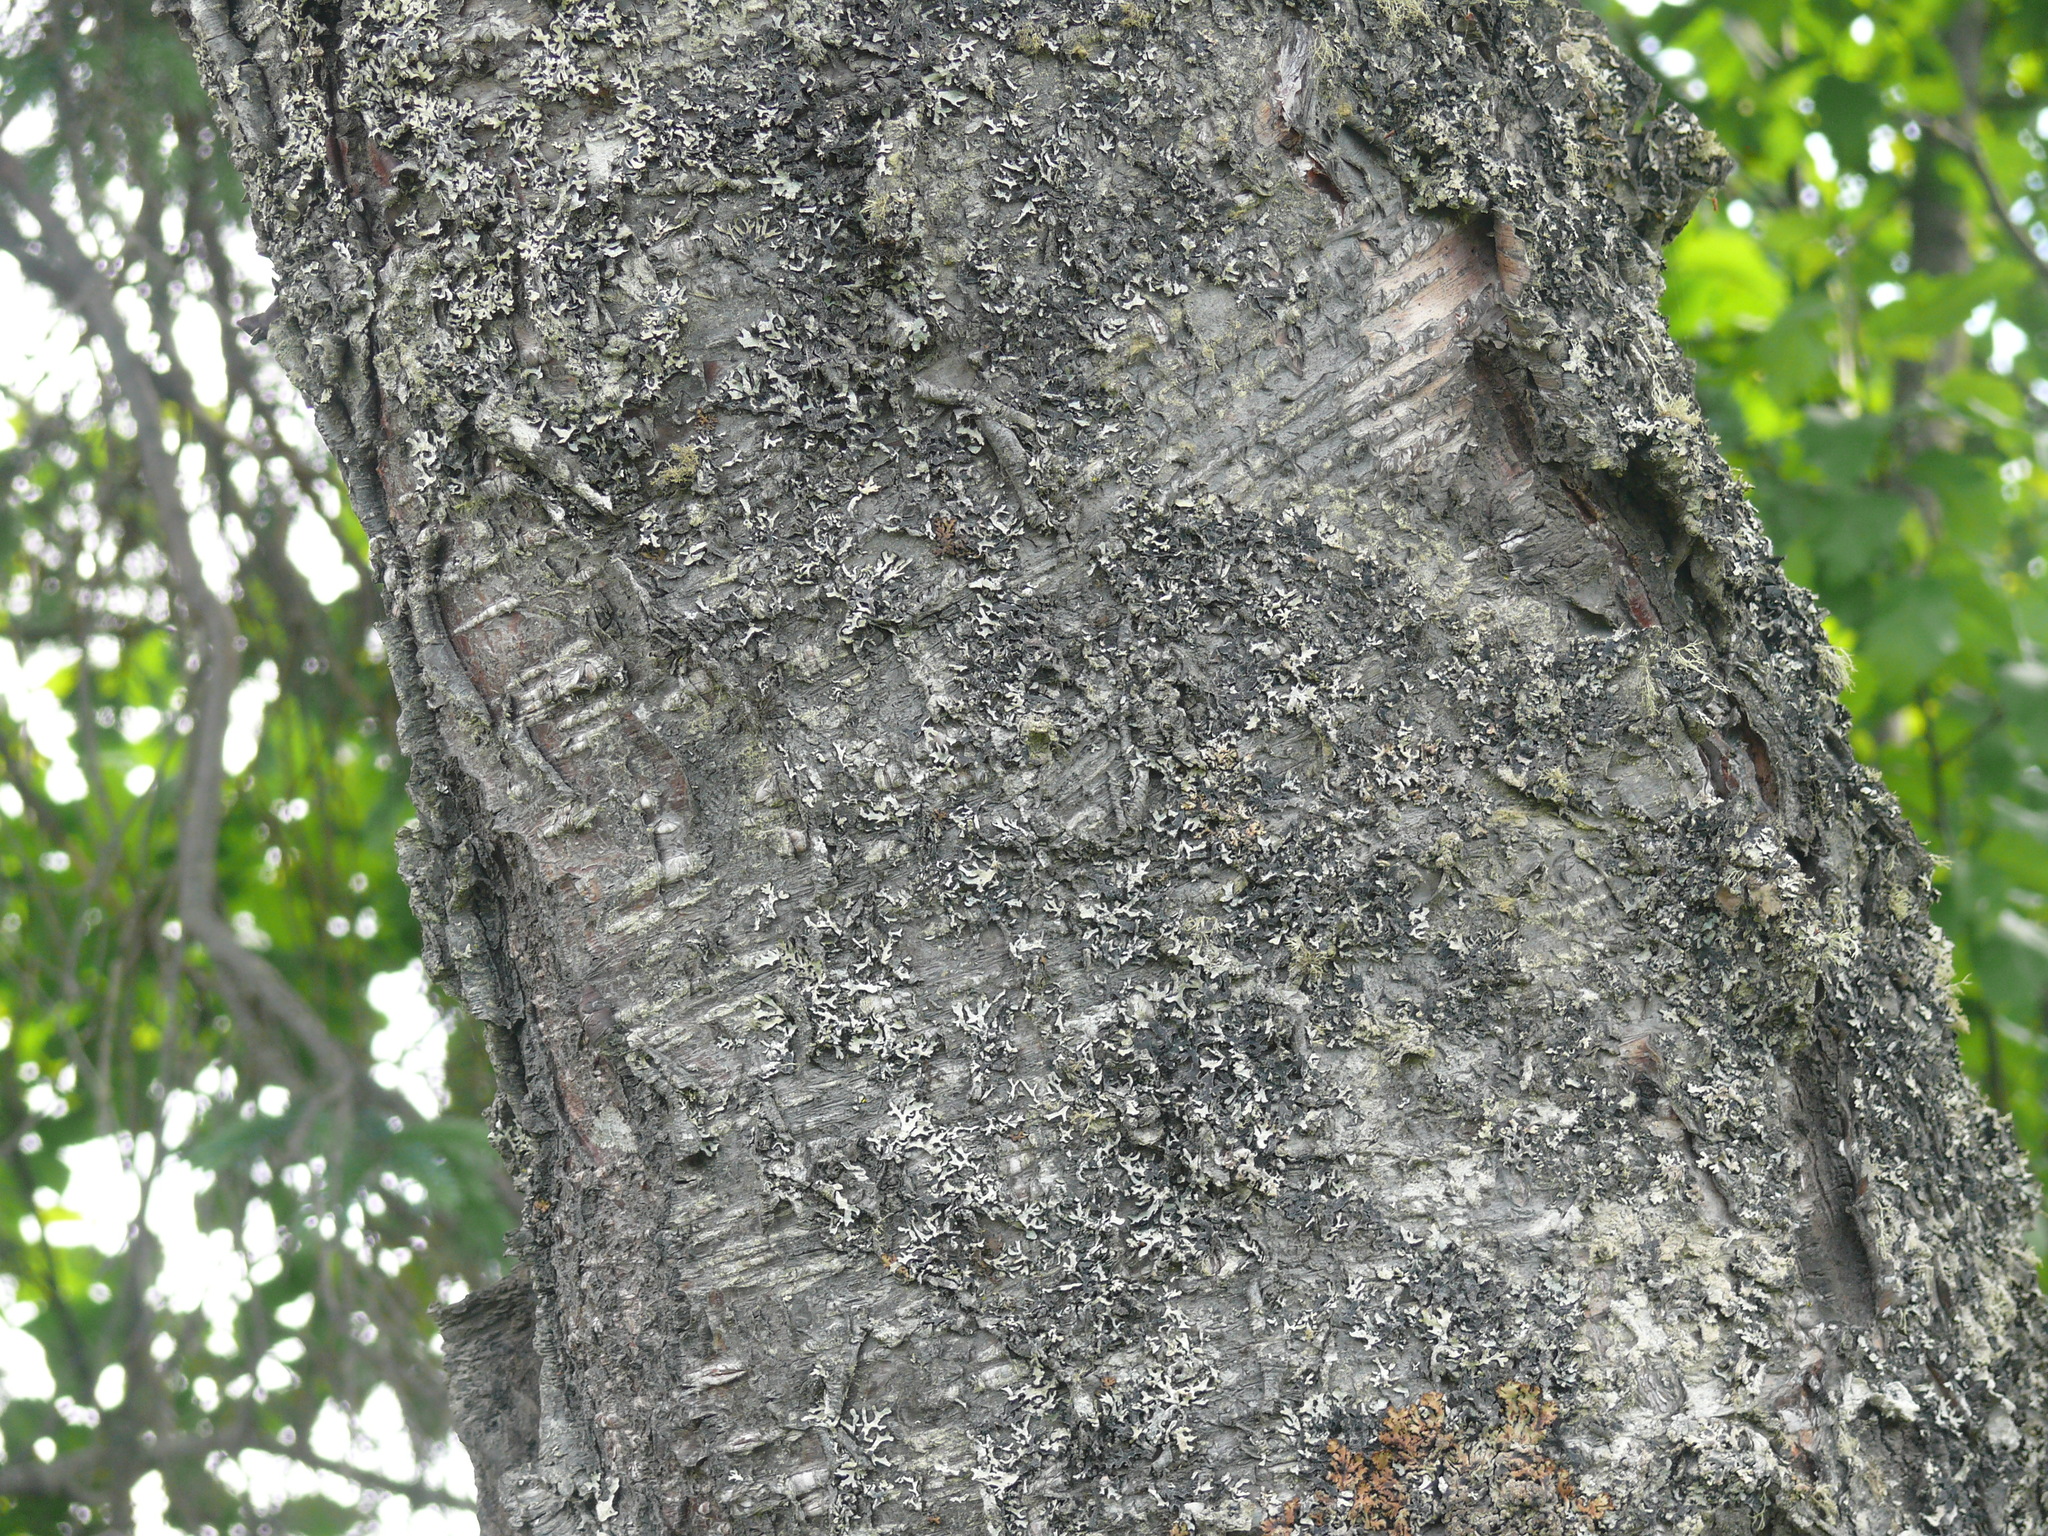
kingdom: Plantae
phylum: Tracheophyta
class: Magnoliopsida
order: Fagales
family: Betulaceae
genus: Betula
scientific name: Betula papyrifera
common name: Paper birch
